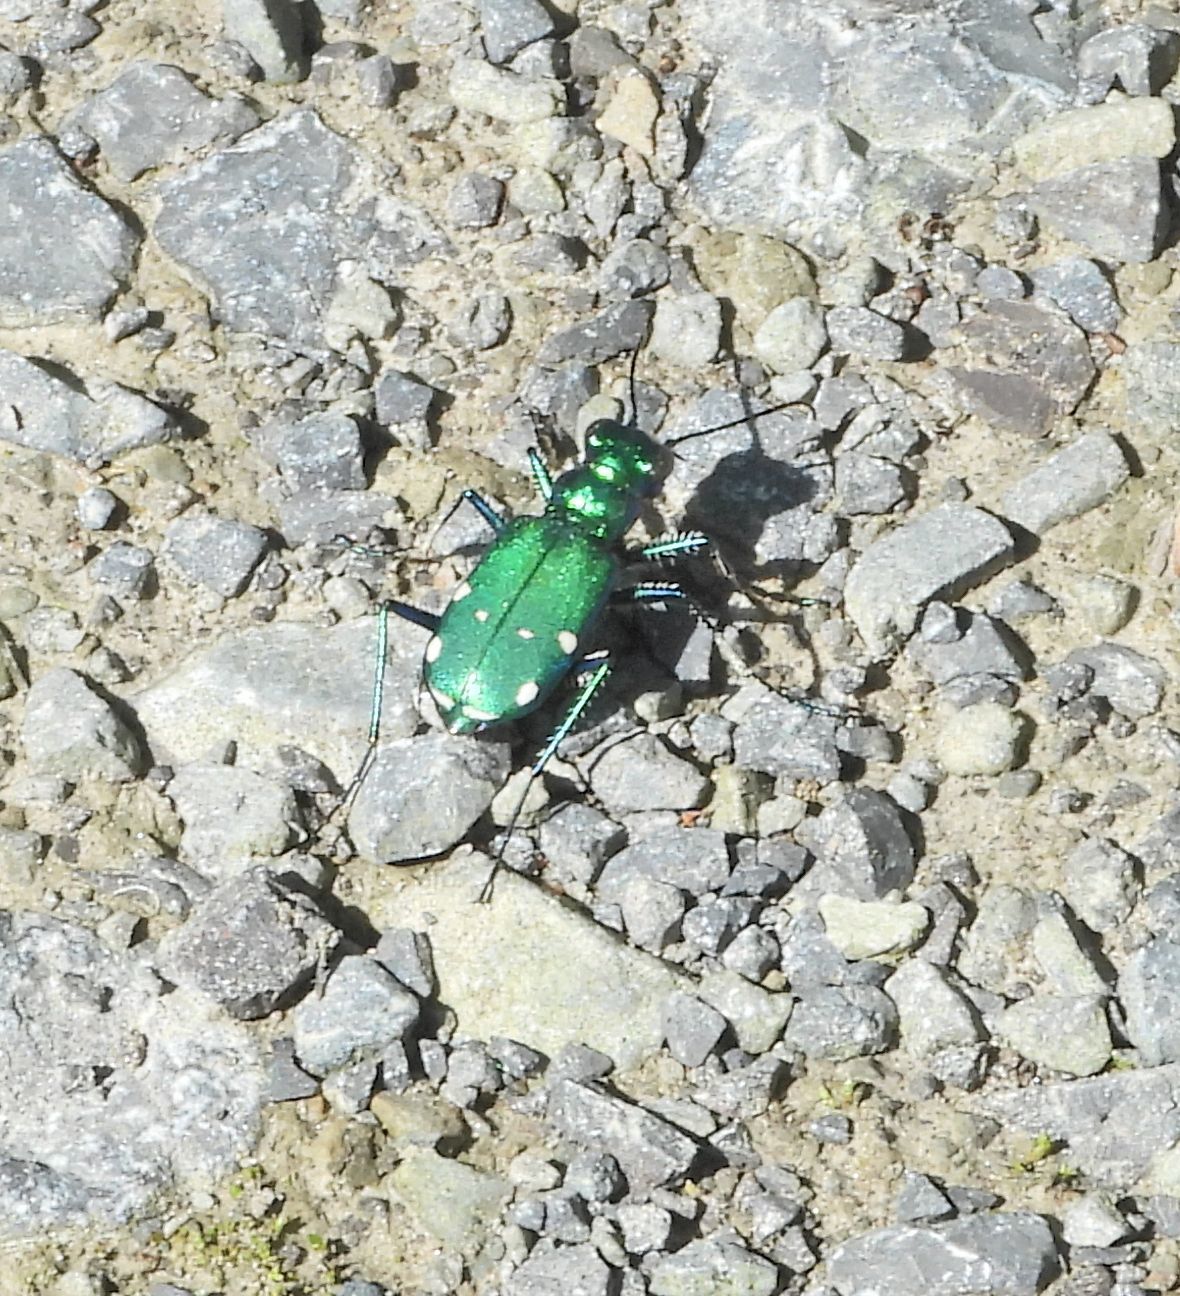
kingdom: Animalia
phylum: Arthropoda
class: Insecta
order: Coleoptera
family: Carabidae
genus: Cicindela
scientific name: Cicindela sexguttata
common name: Six-spotted tiger beetle
